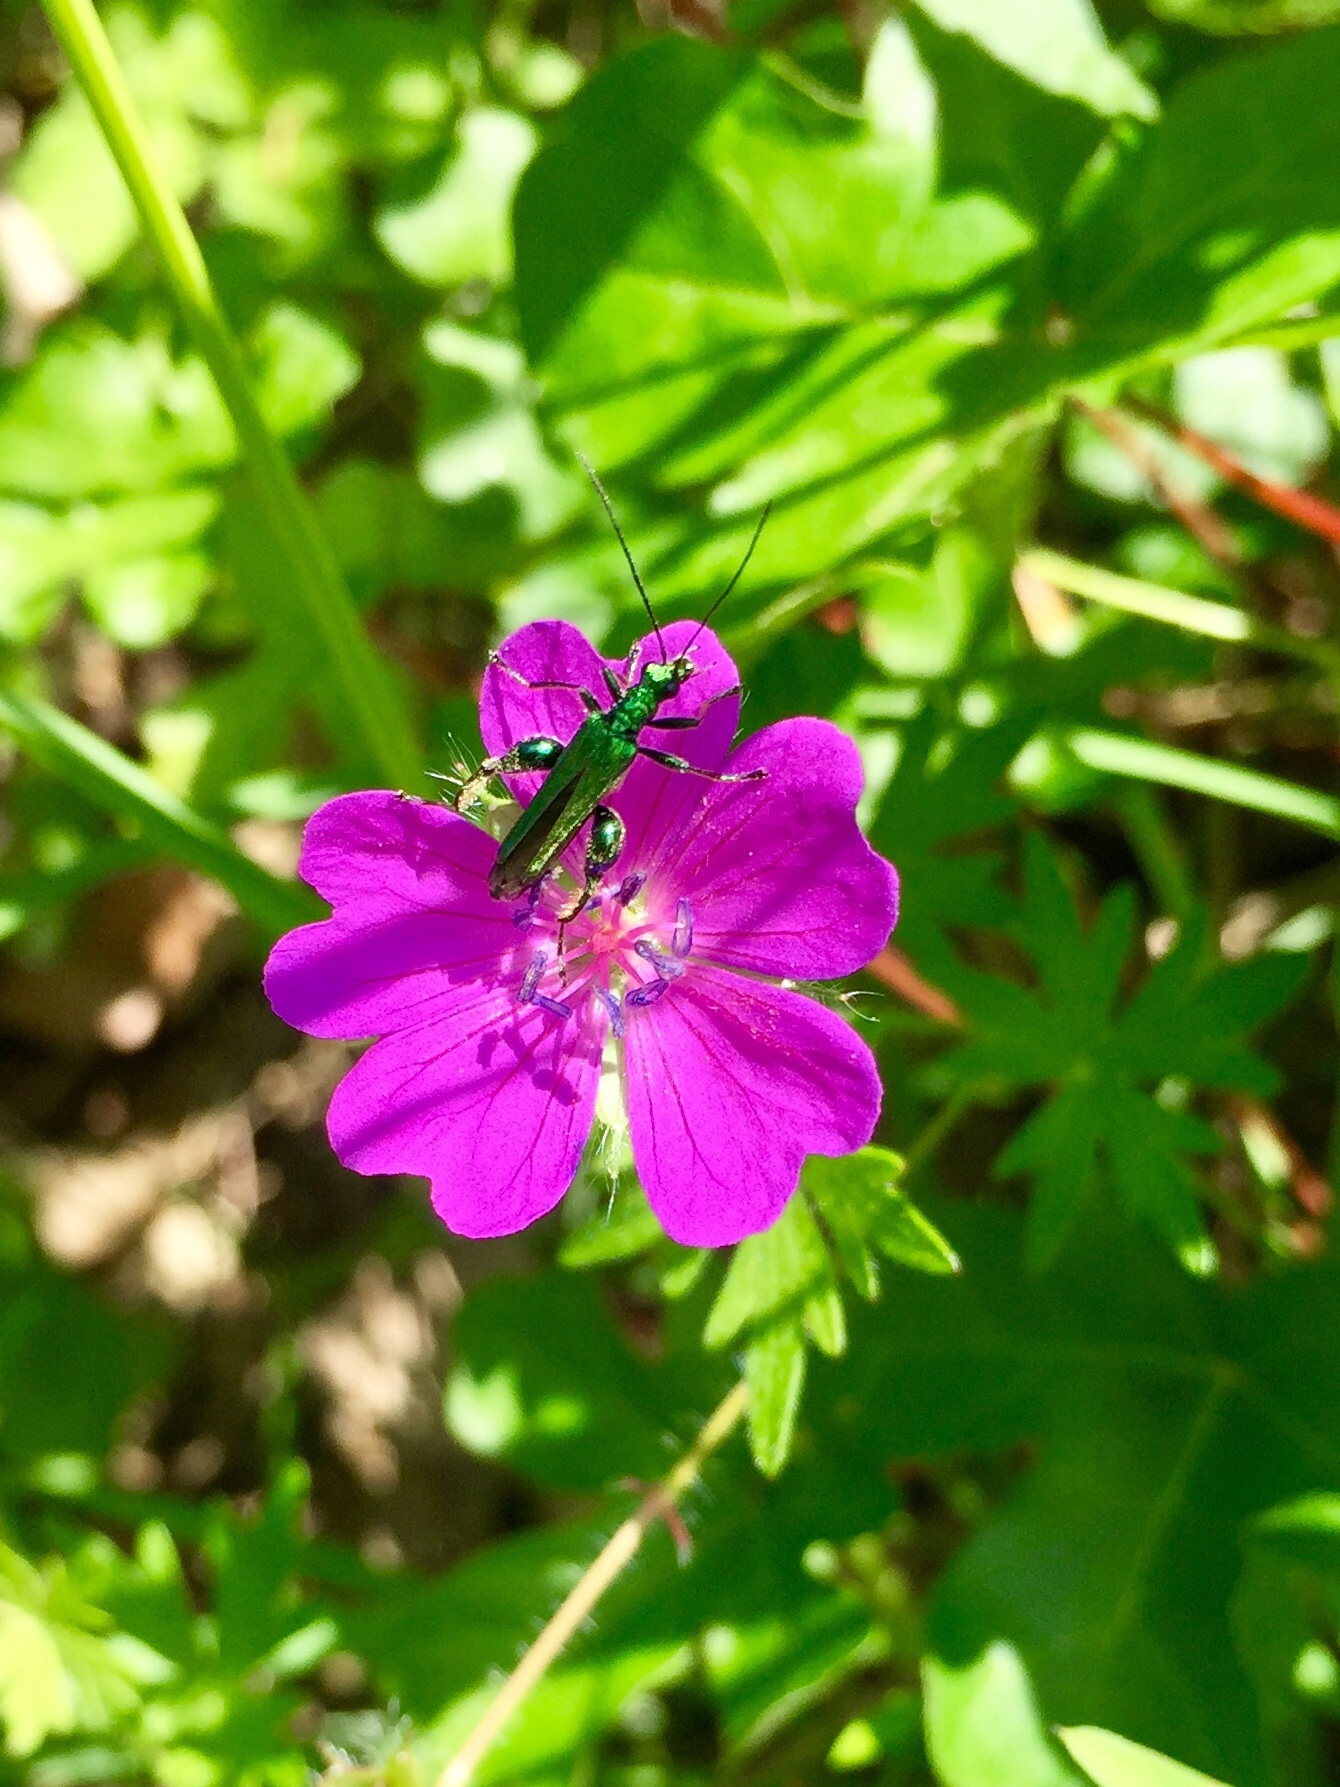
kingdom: Animalia
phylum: Arthropoda
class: Insecta
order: Coleoptera
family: Oedemeridae
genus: Oedemera
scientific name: Oedemera nobilis
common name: Swollen-thighed beetle
